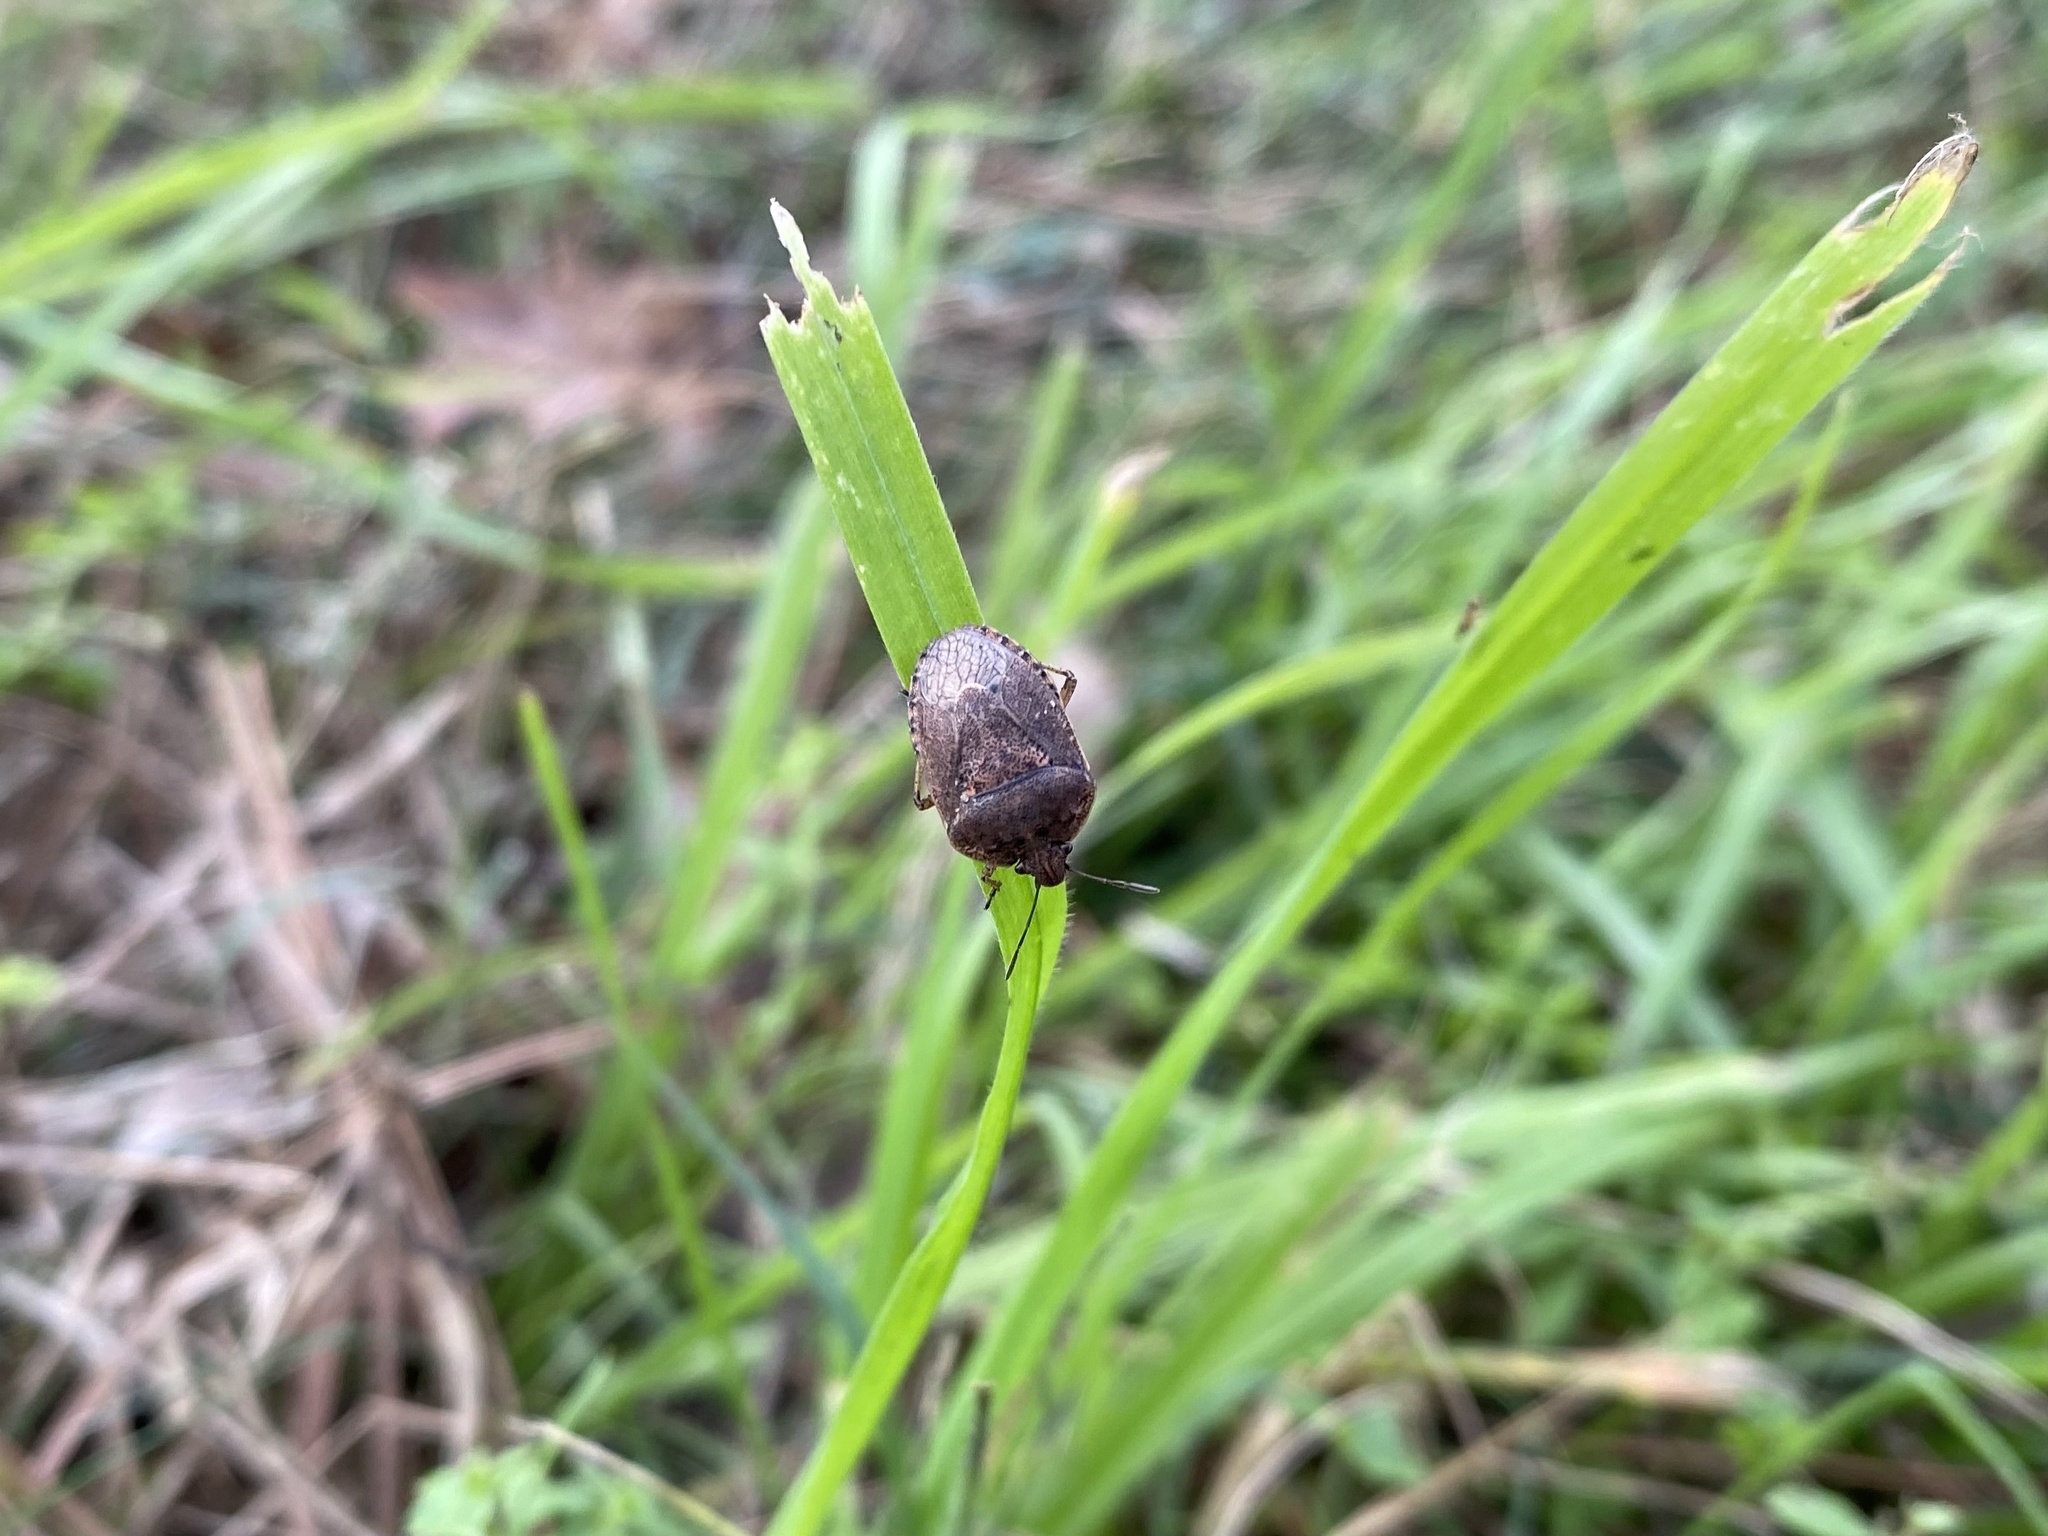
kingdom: Animalia
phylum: Arthropoda
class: Insecta
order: Hemiptera
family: Pentatomidae
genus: Hymenarcys
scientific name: Hymenarcys nervosa
